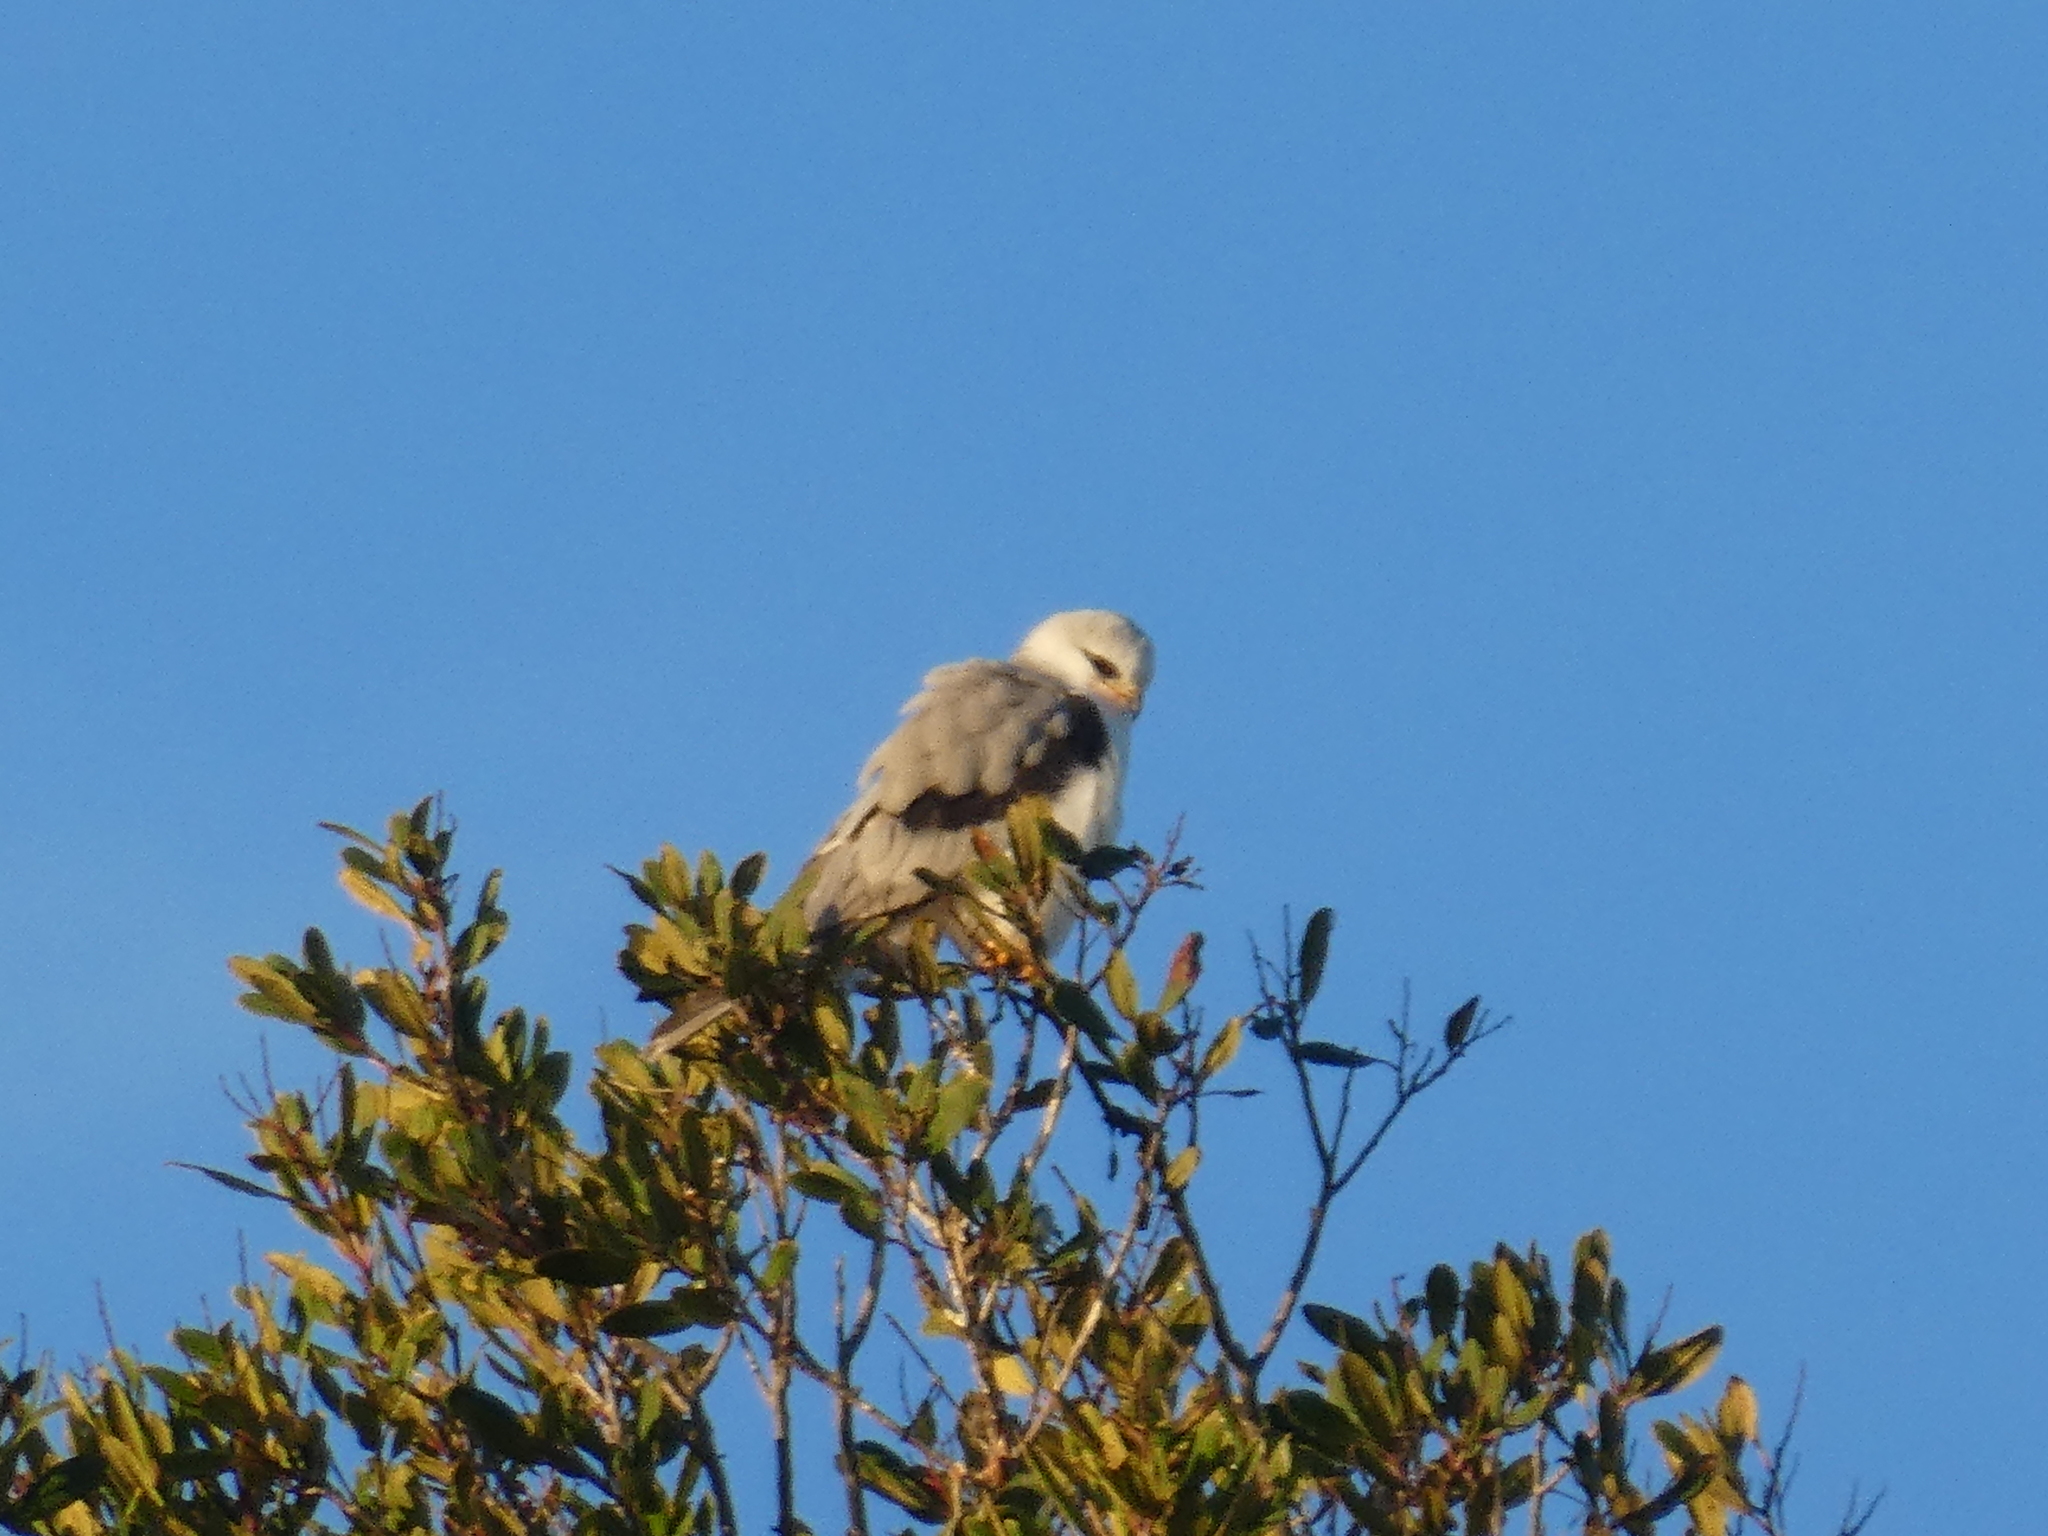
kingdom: Animalia
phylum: Chordata
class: Aves
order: Accipitriformes
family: Accipitridae
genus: Elanus
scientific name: Elanus leucurus
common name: White-tailed kite
